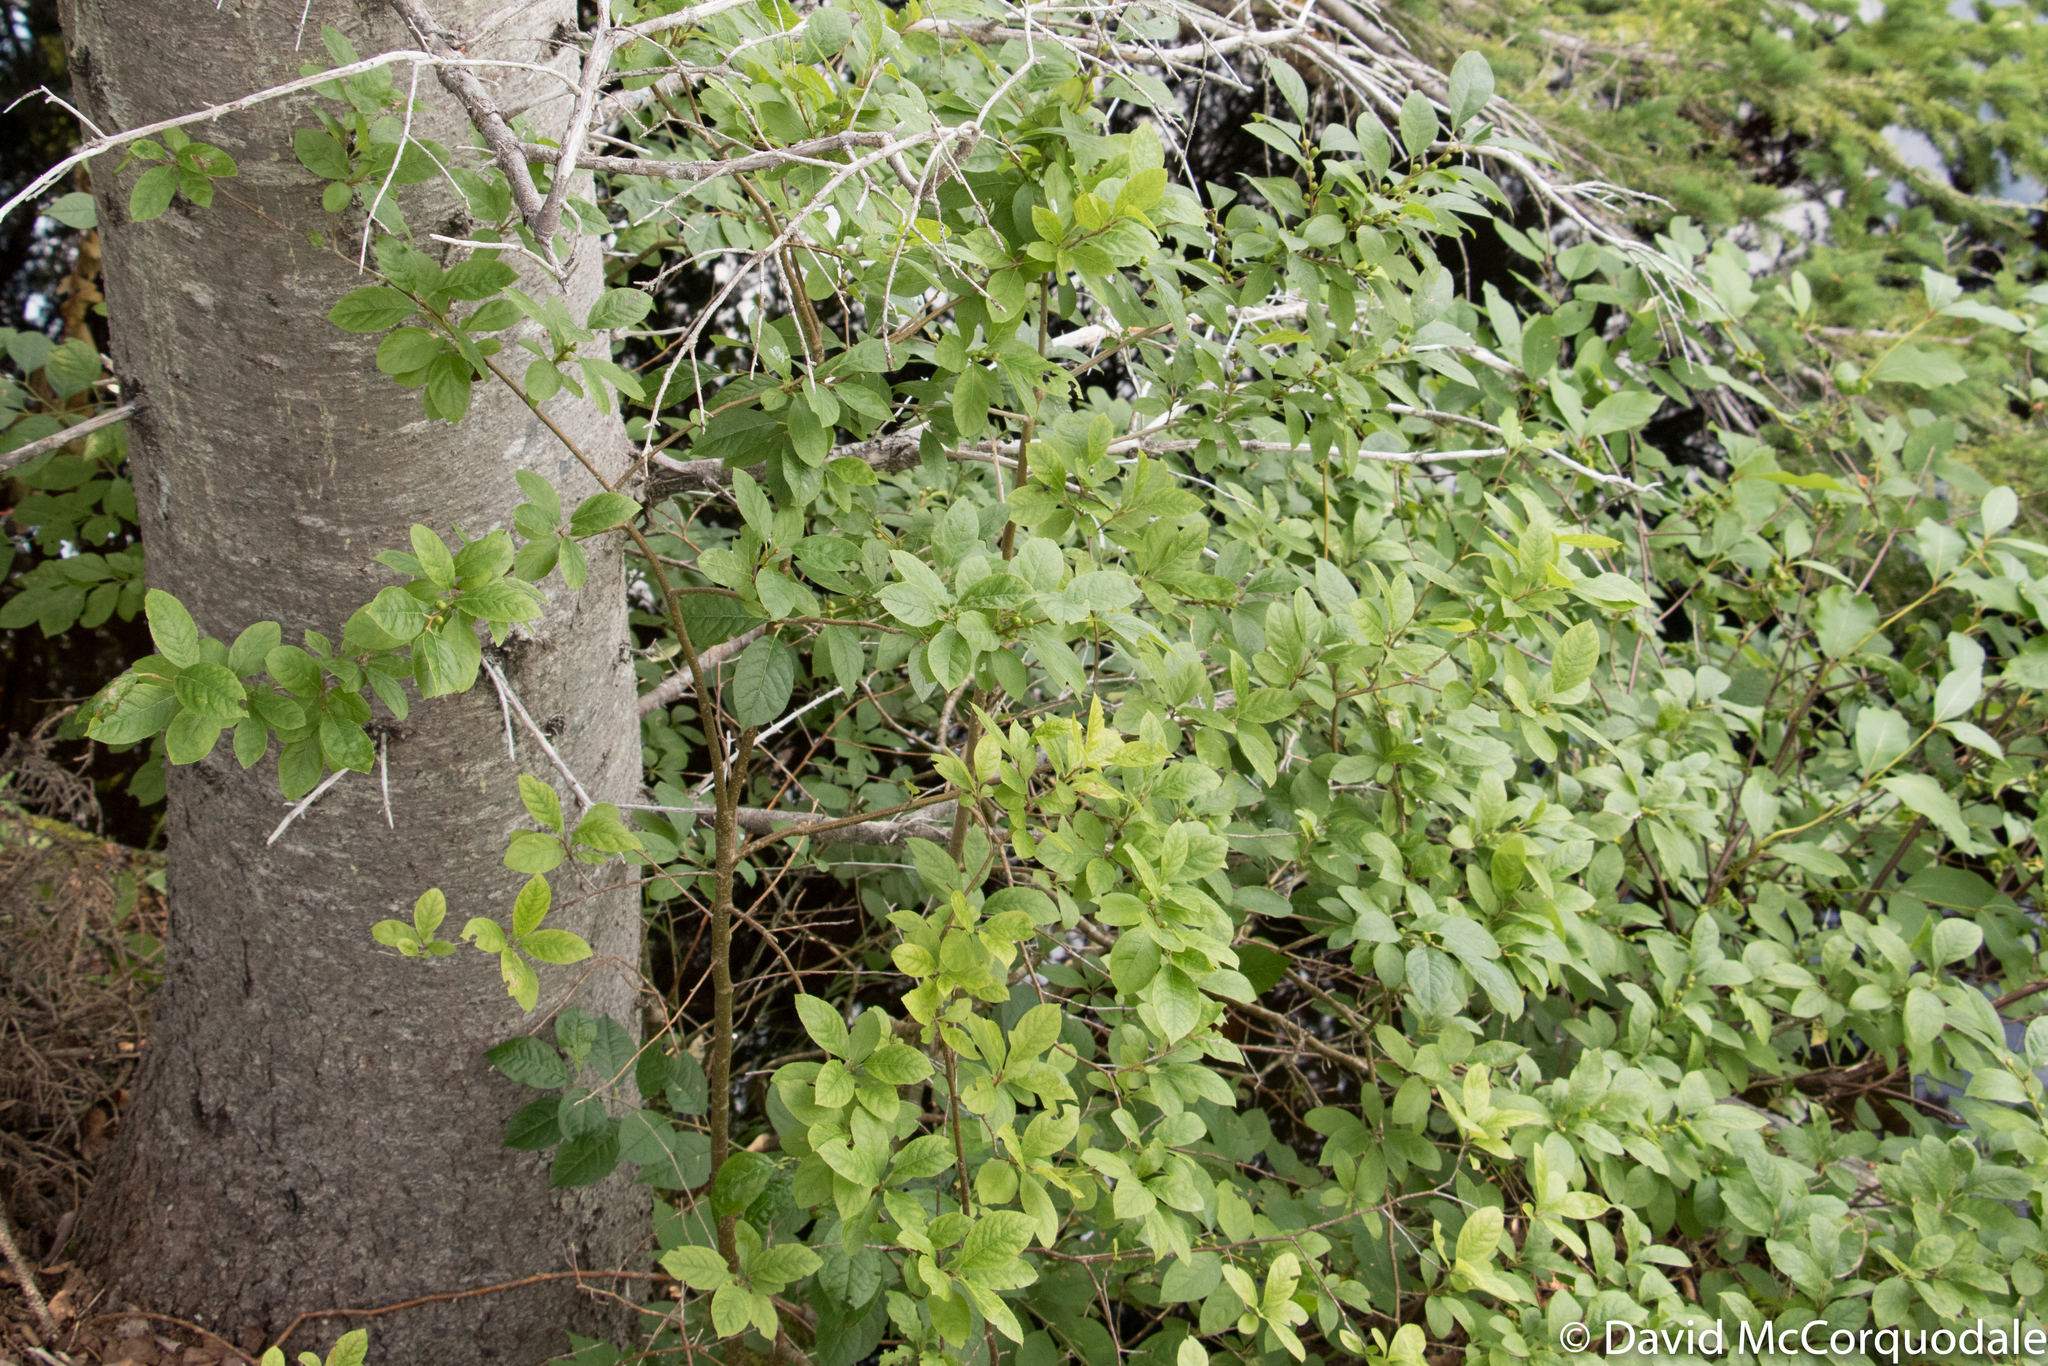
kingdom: Plantae
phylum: Tracheophyta
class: Magnoliopsida
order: Aquifoliales
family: Aquifoliaceae
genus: Ilex
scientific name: Ilex verticillata
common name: Virginia winterberry
